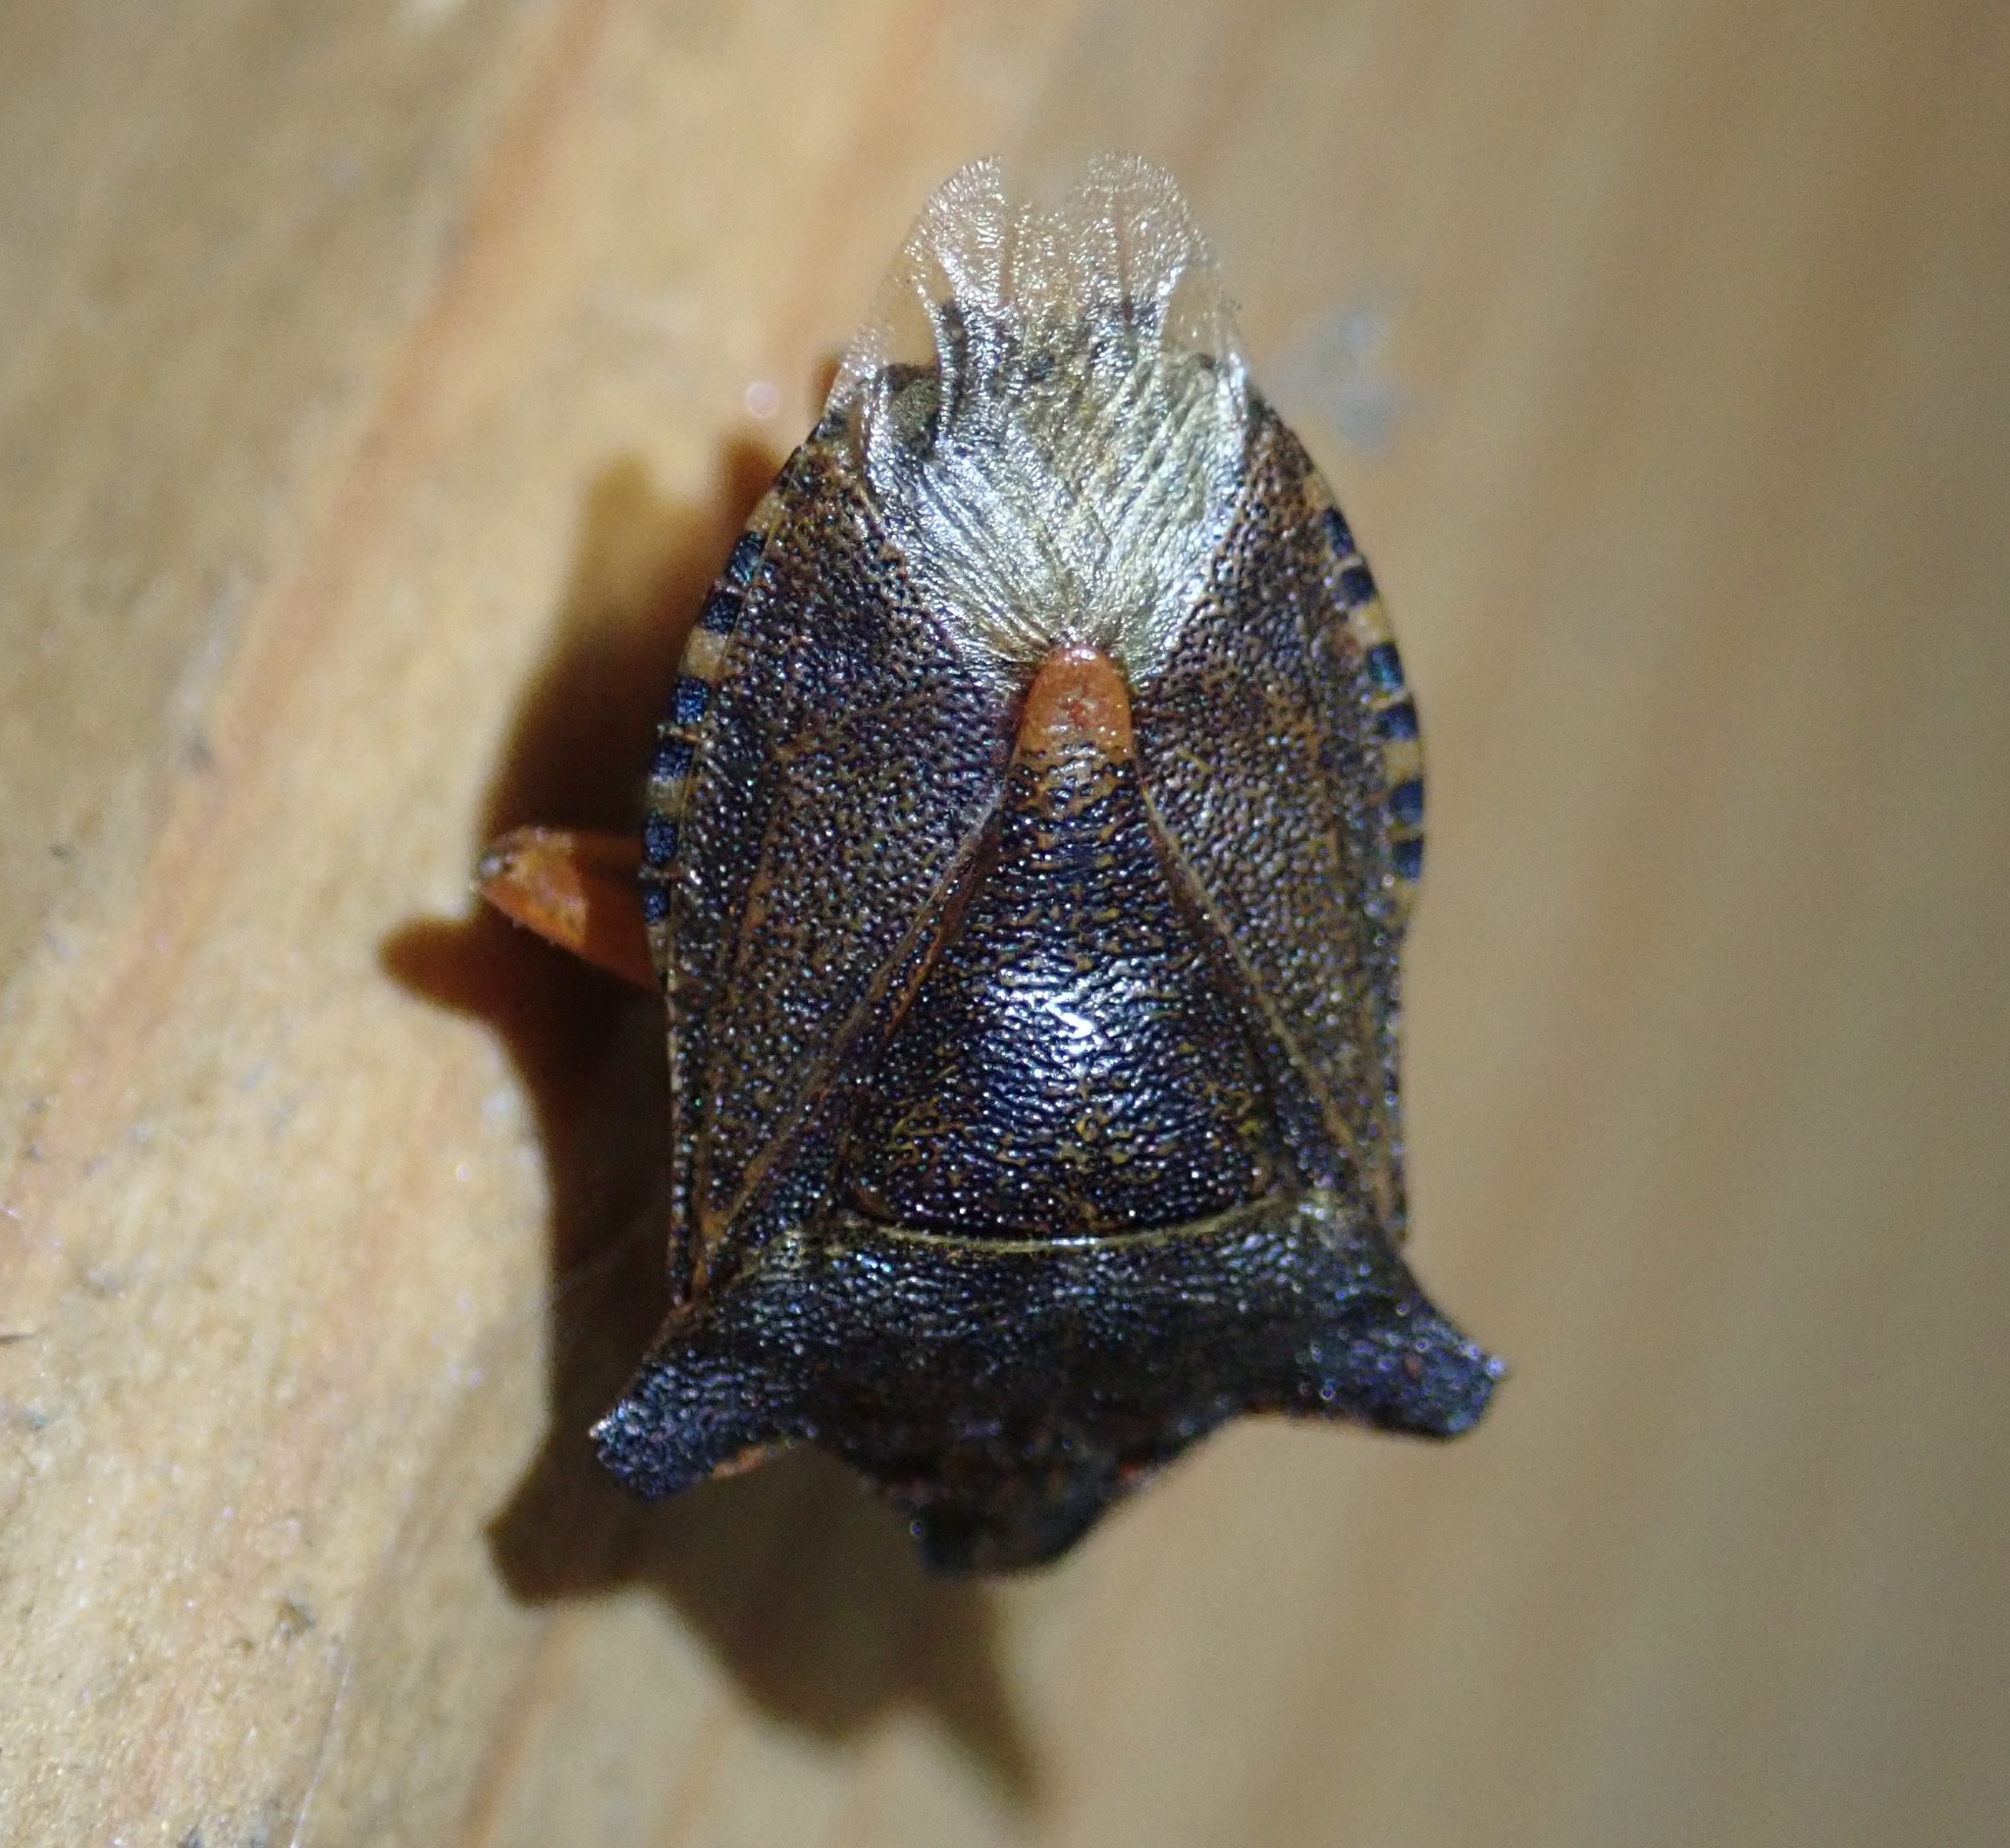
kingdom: Animalia
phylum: Arthropoda
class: Insecta
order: Hemiptera
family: Pentatomidae
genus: Pentatoma
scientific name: Pentatoma rufipes
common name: Forest bug
